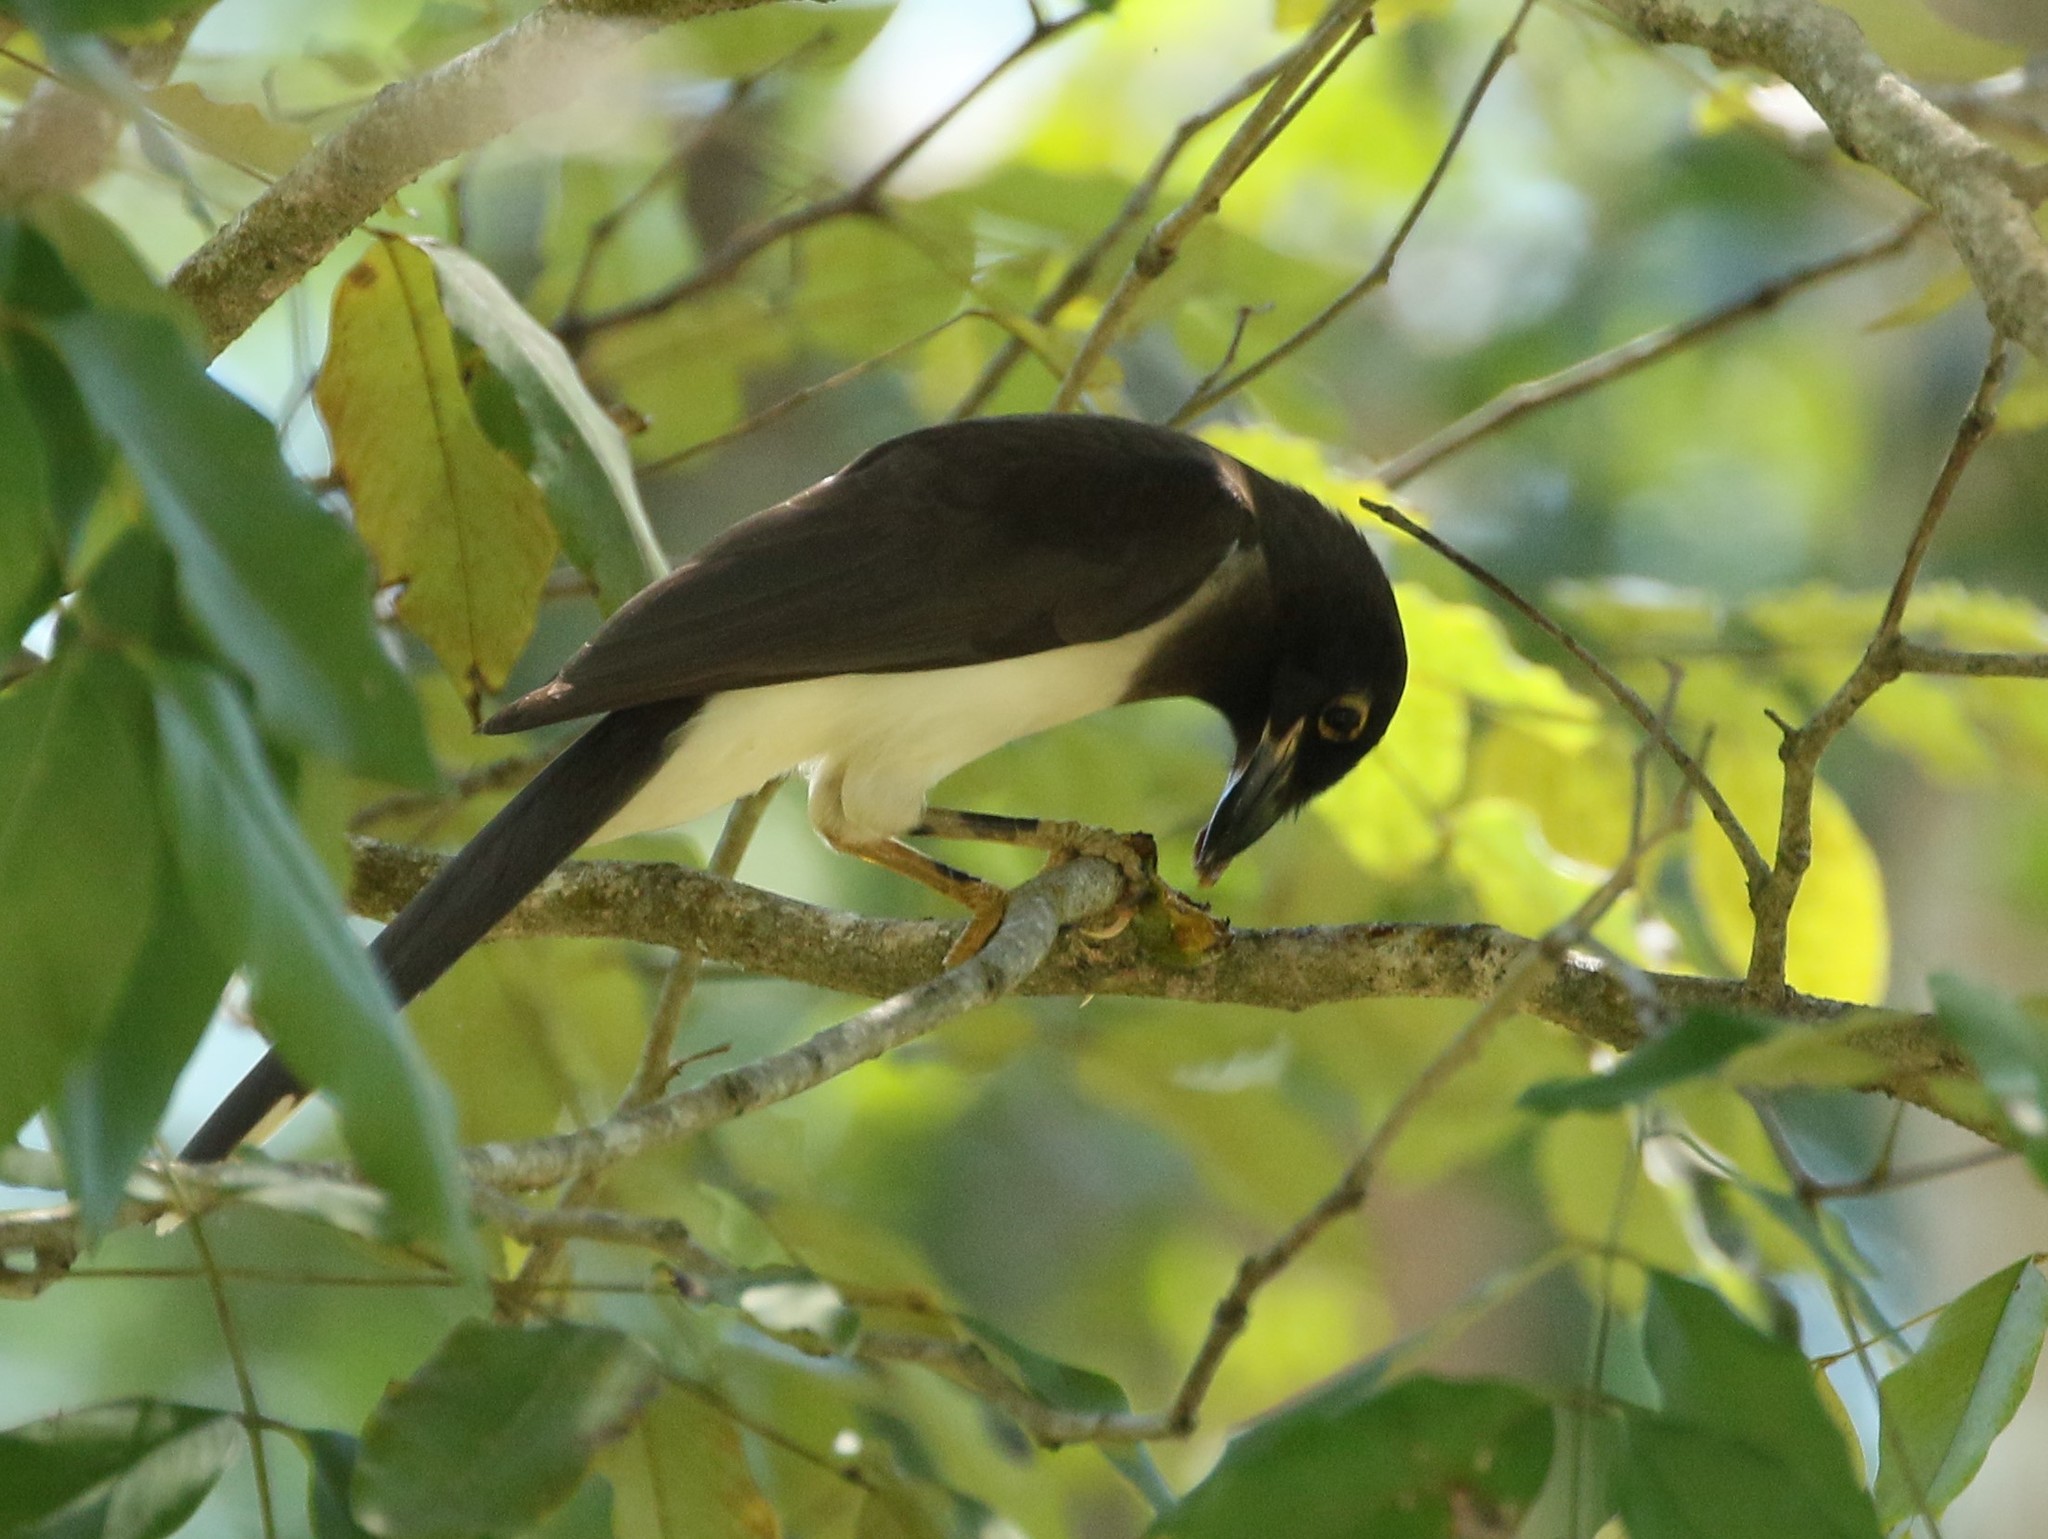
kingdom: Animalia
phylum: Chordata
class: Aves
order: Passeriformes
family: Corvidae
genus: Psilorhinus
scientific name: Psilorhinus morio
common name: Brown jay
